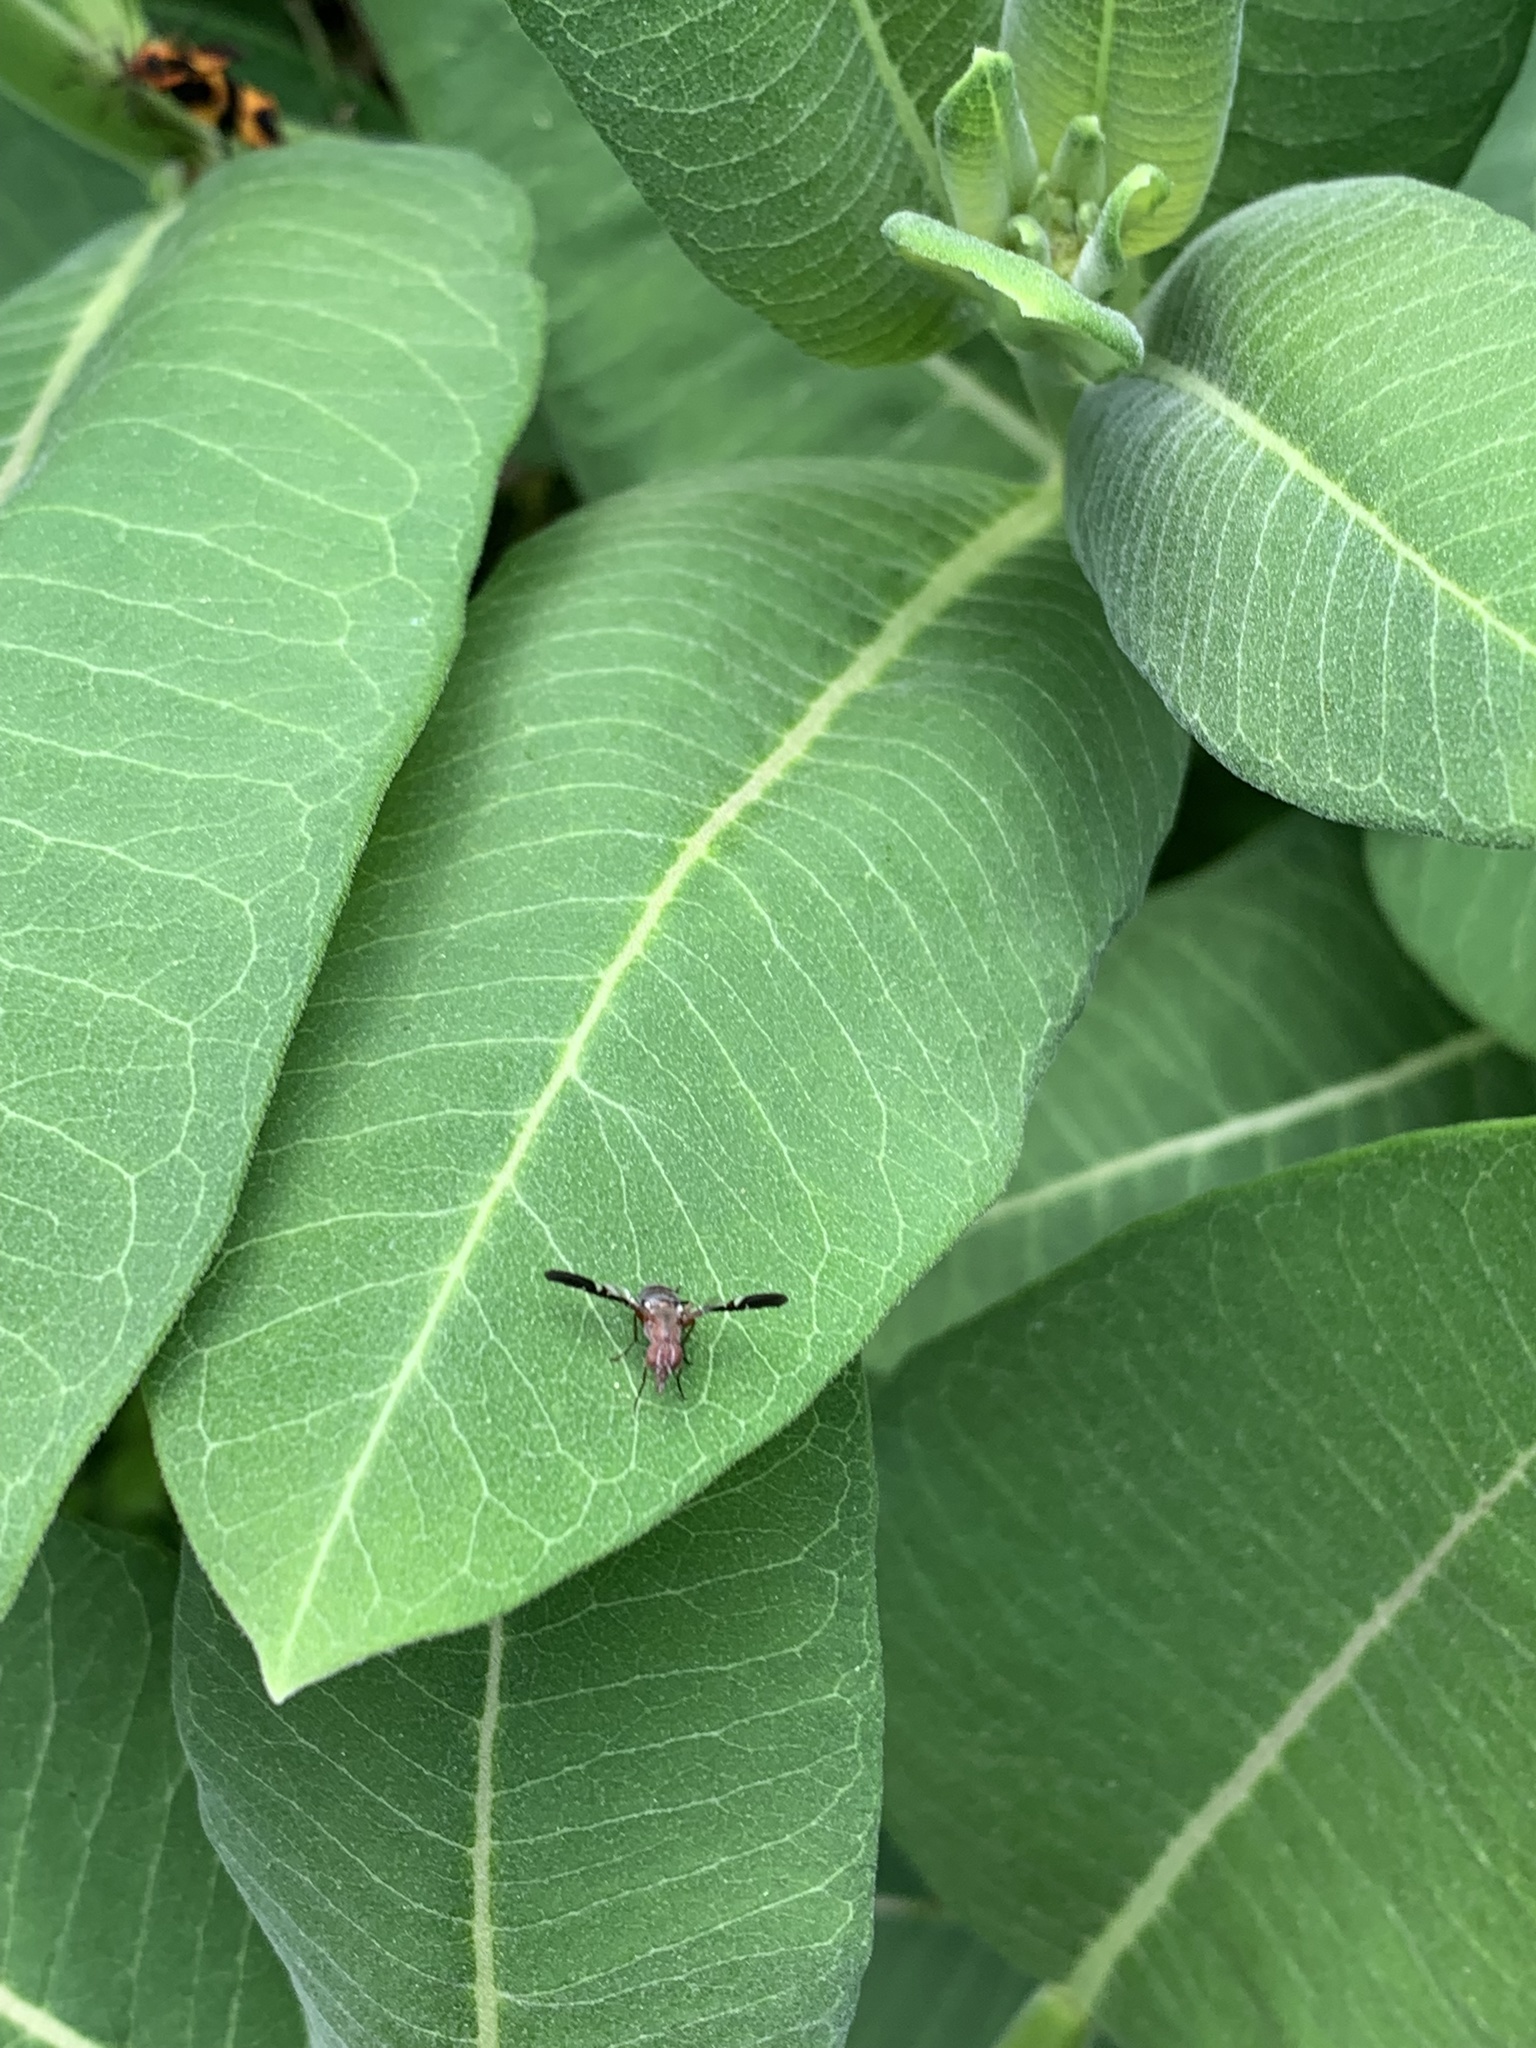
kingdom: Animalia
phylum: Arthropoda
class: Insecta
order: Diptera
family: Ulidiidae
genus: Delphinia
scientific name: Delphinia picta
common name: Common picture-winged fly
